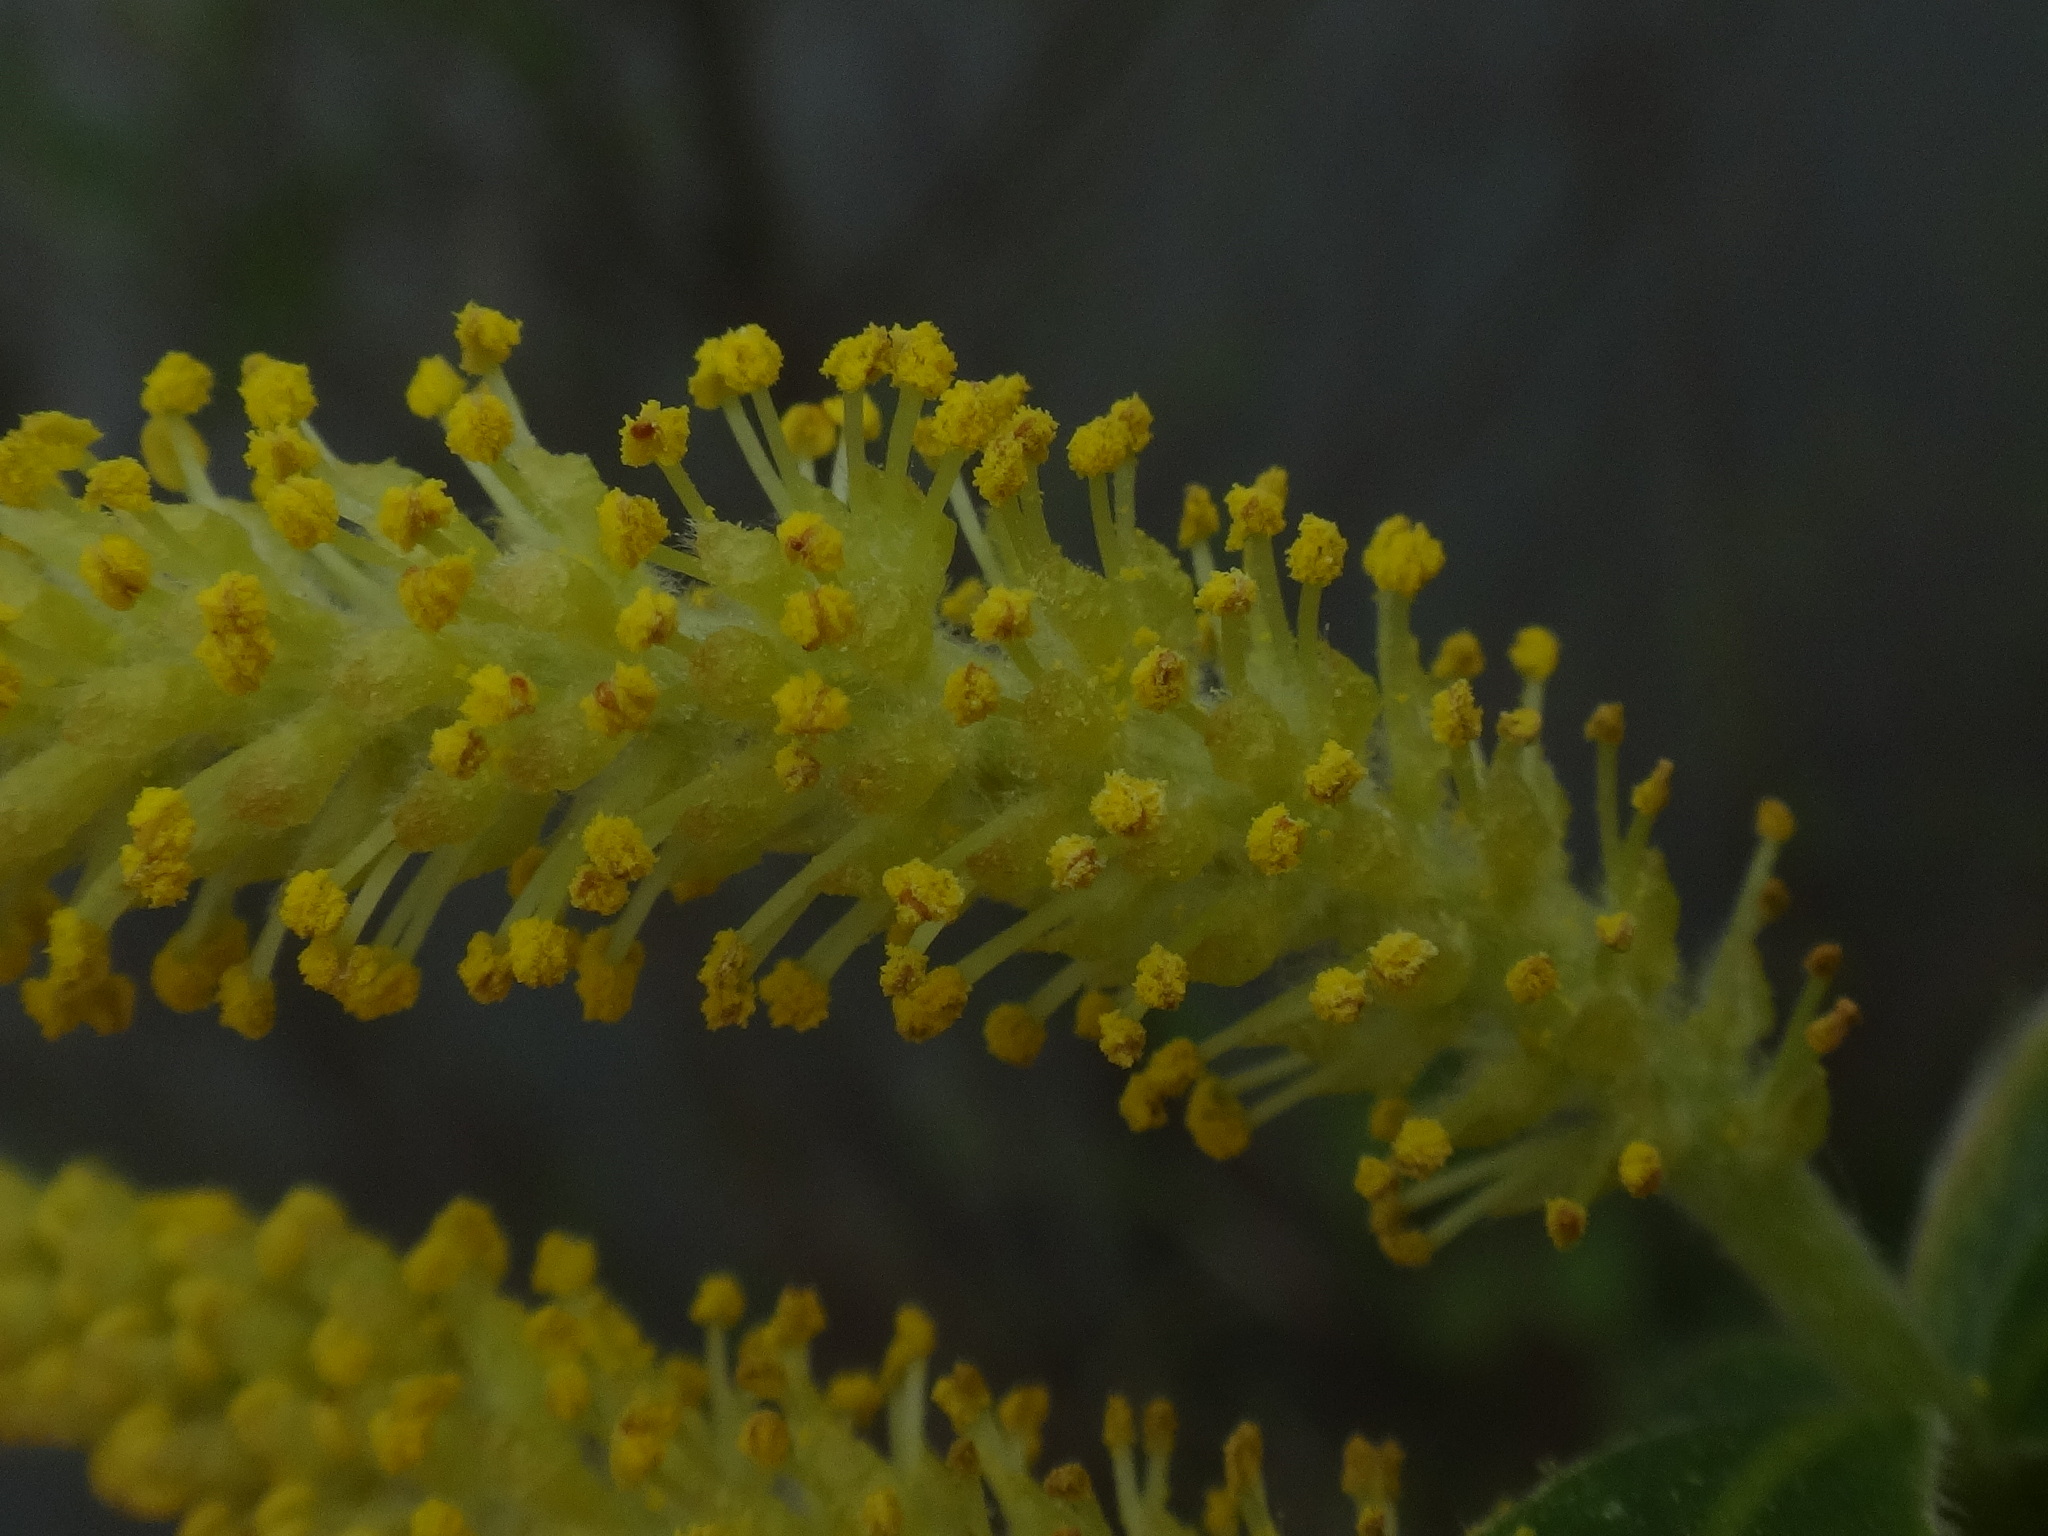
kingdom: Plantae
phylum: Tracheophyta
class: Magnoliopsida
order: Malpighiales
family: Salicaceae
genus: Salix
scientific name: Salix alba
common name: White willow
